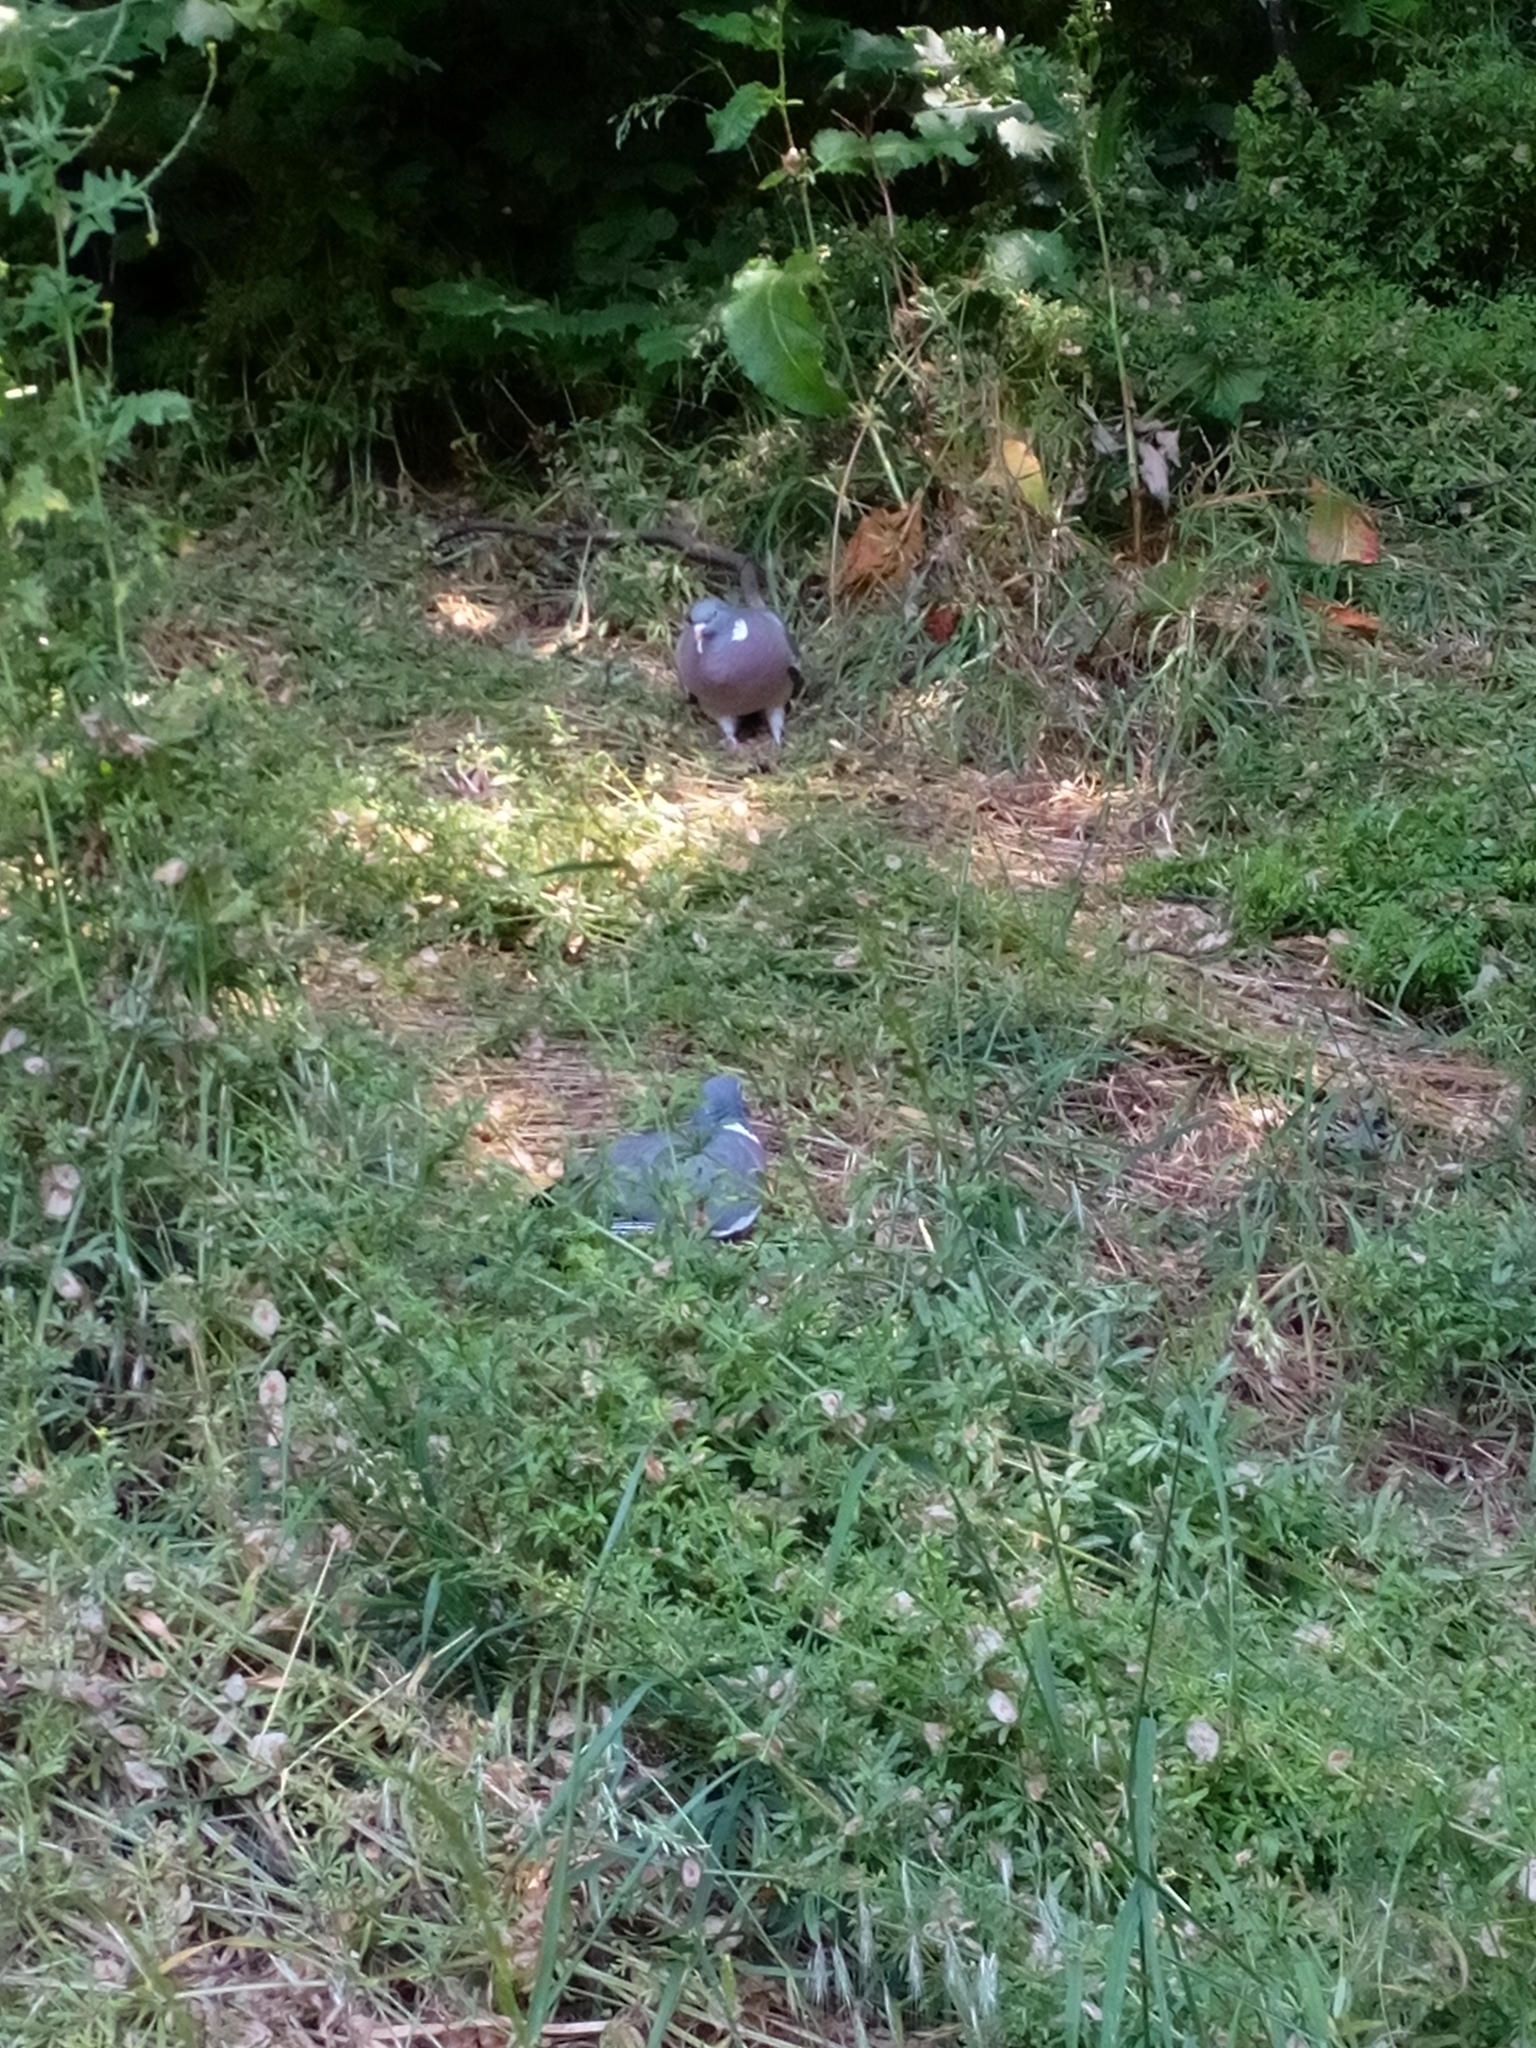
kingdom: Animalia
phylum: Chordata
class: Aves
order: Columbiformes
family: Columbidae
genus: Columba
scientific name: Columba palumbus
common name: Common wood pigeon
